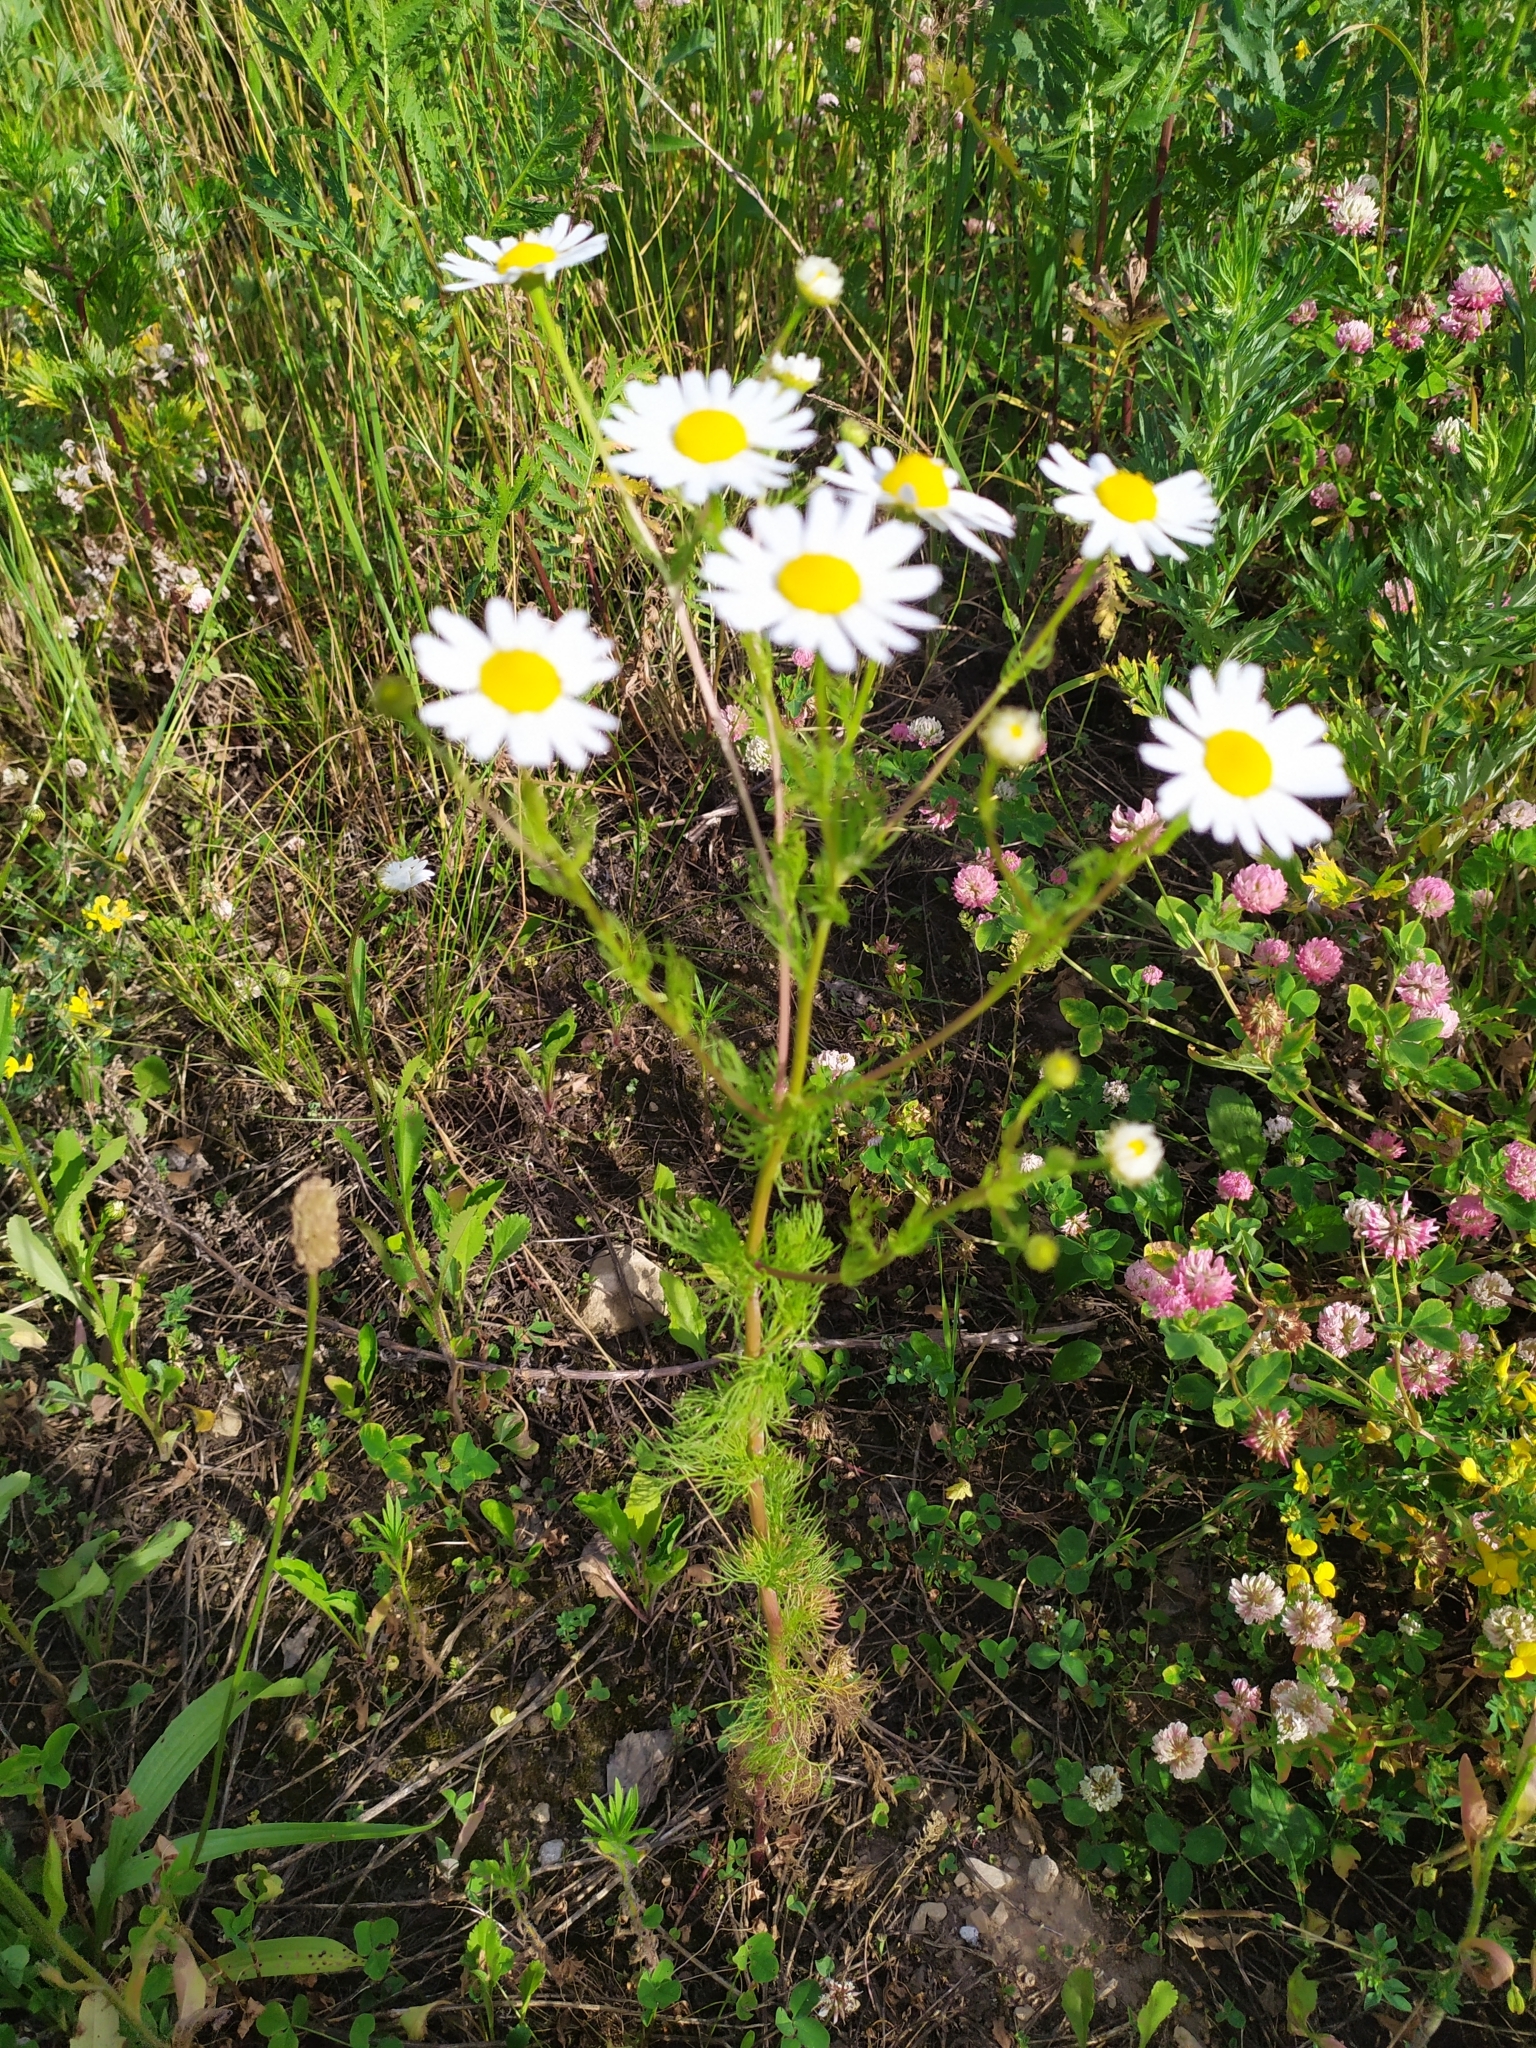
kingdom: Plantae
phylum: Tracheophyta
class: Magnoliopsida
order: Asterales
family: Asteraceae
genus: Tripleurospermum
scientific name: Tripleurospermum inodorum
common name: Scentless mayweed
